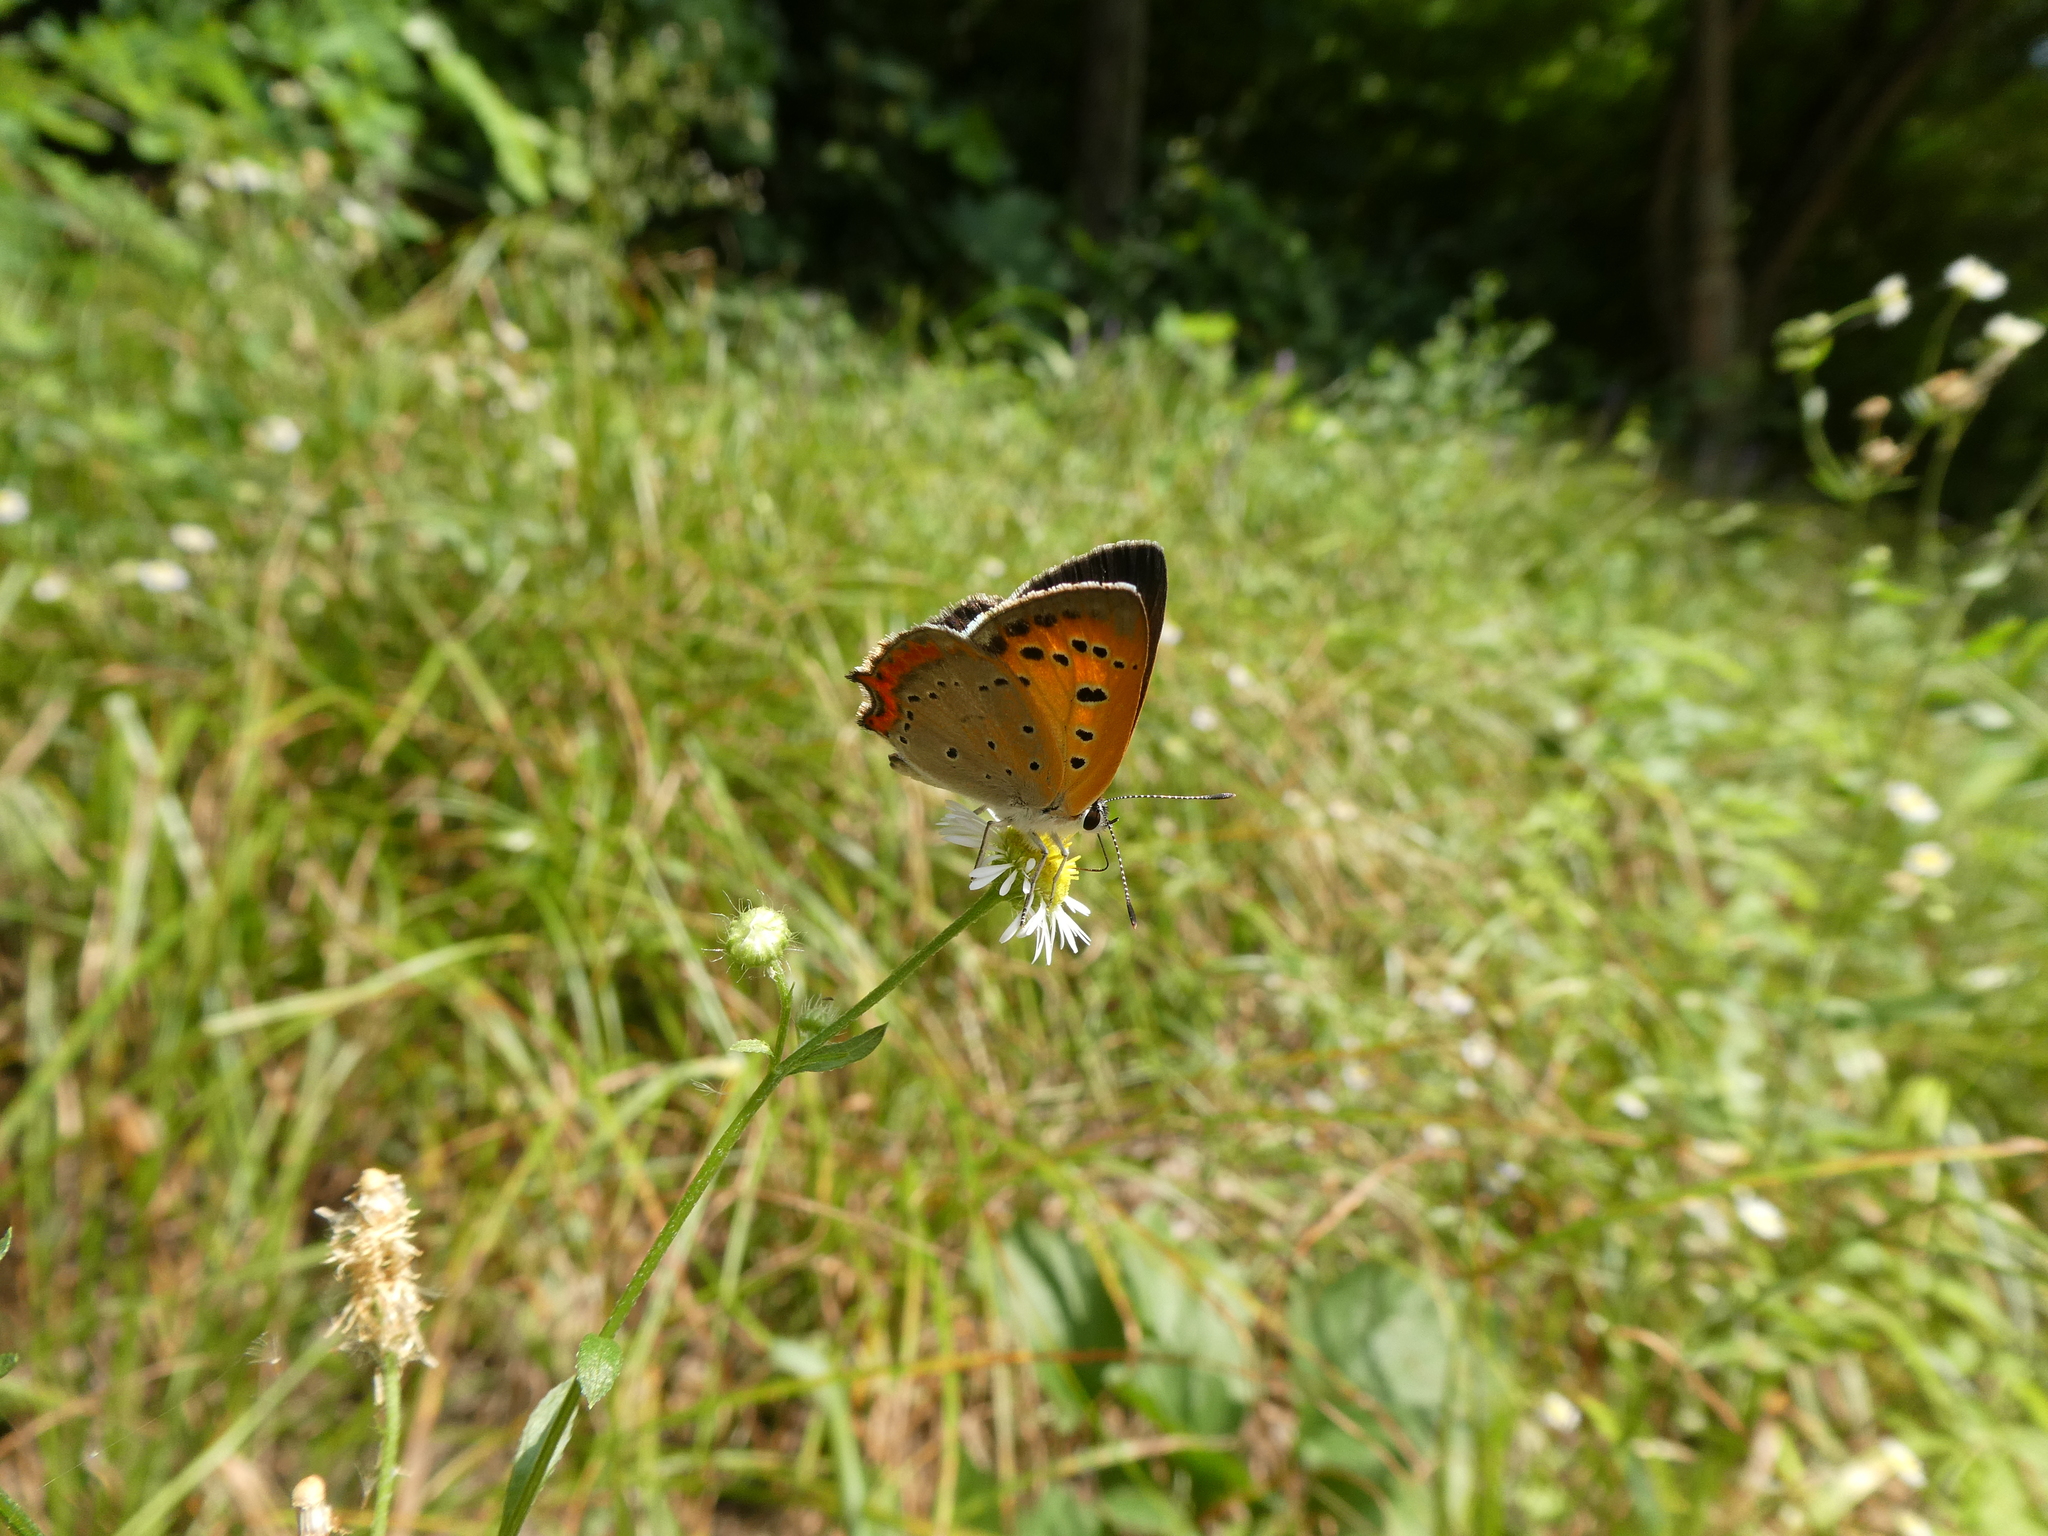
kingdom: Animalia
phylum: Arthropoda
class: Insecta
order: Lepidoptera
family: Lycaenidae
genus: Lycaena
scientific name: Lycaena phlaeas
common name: Small copper
